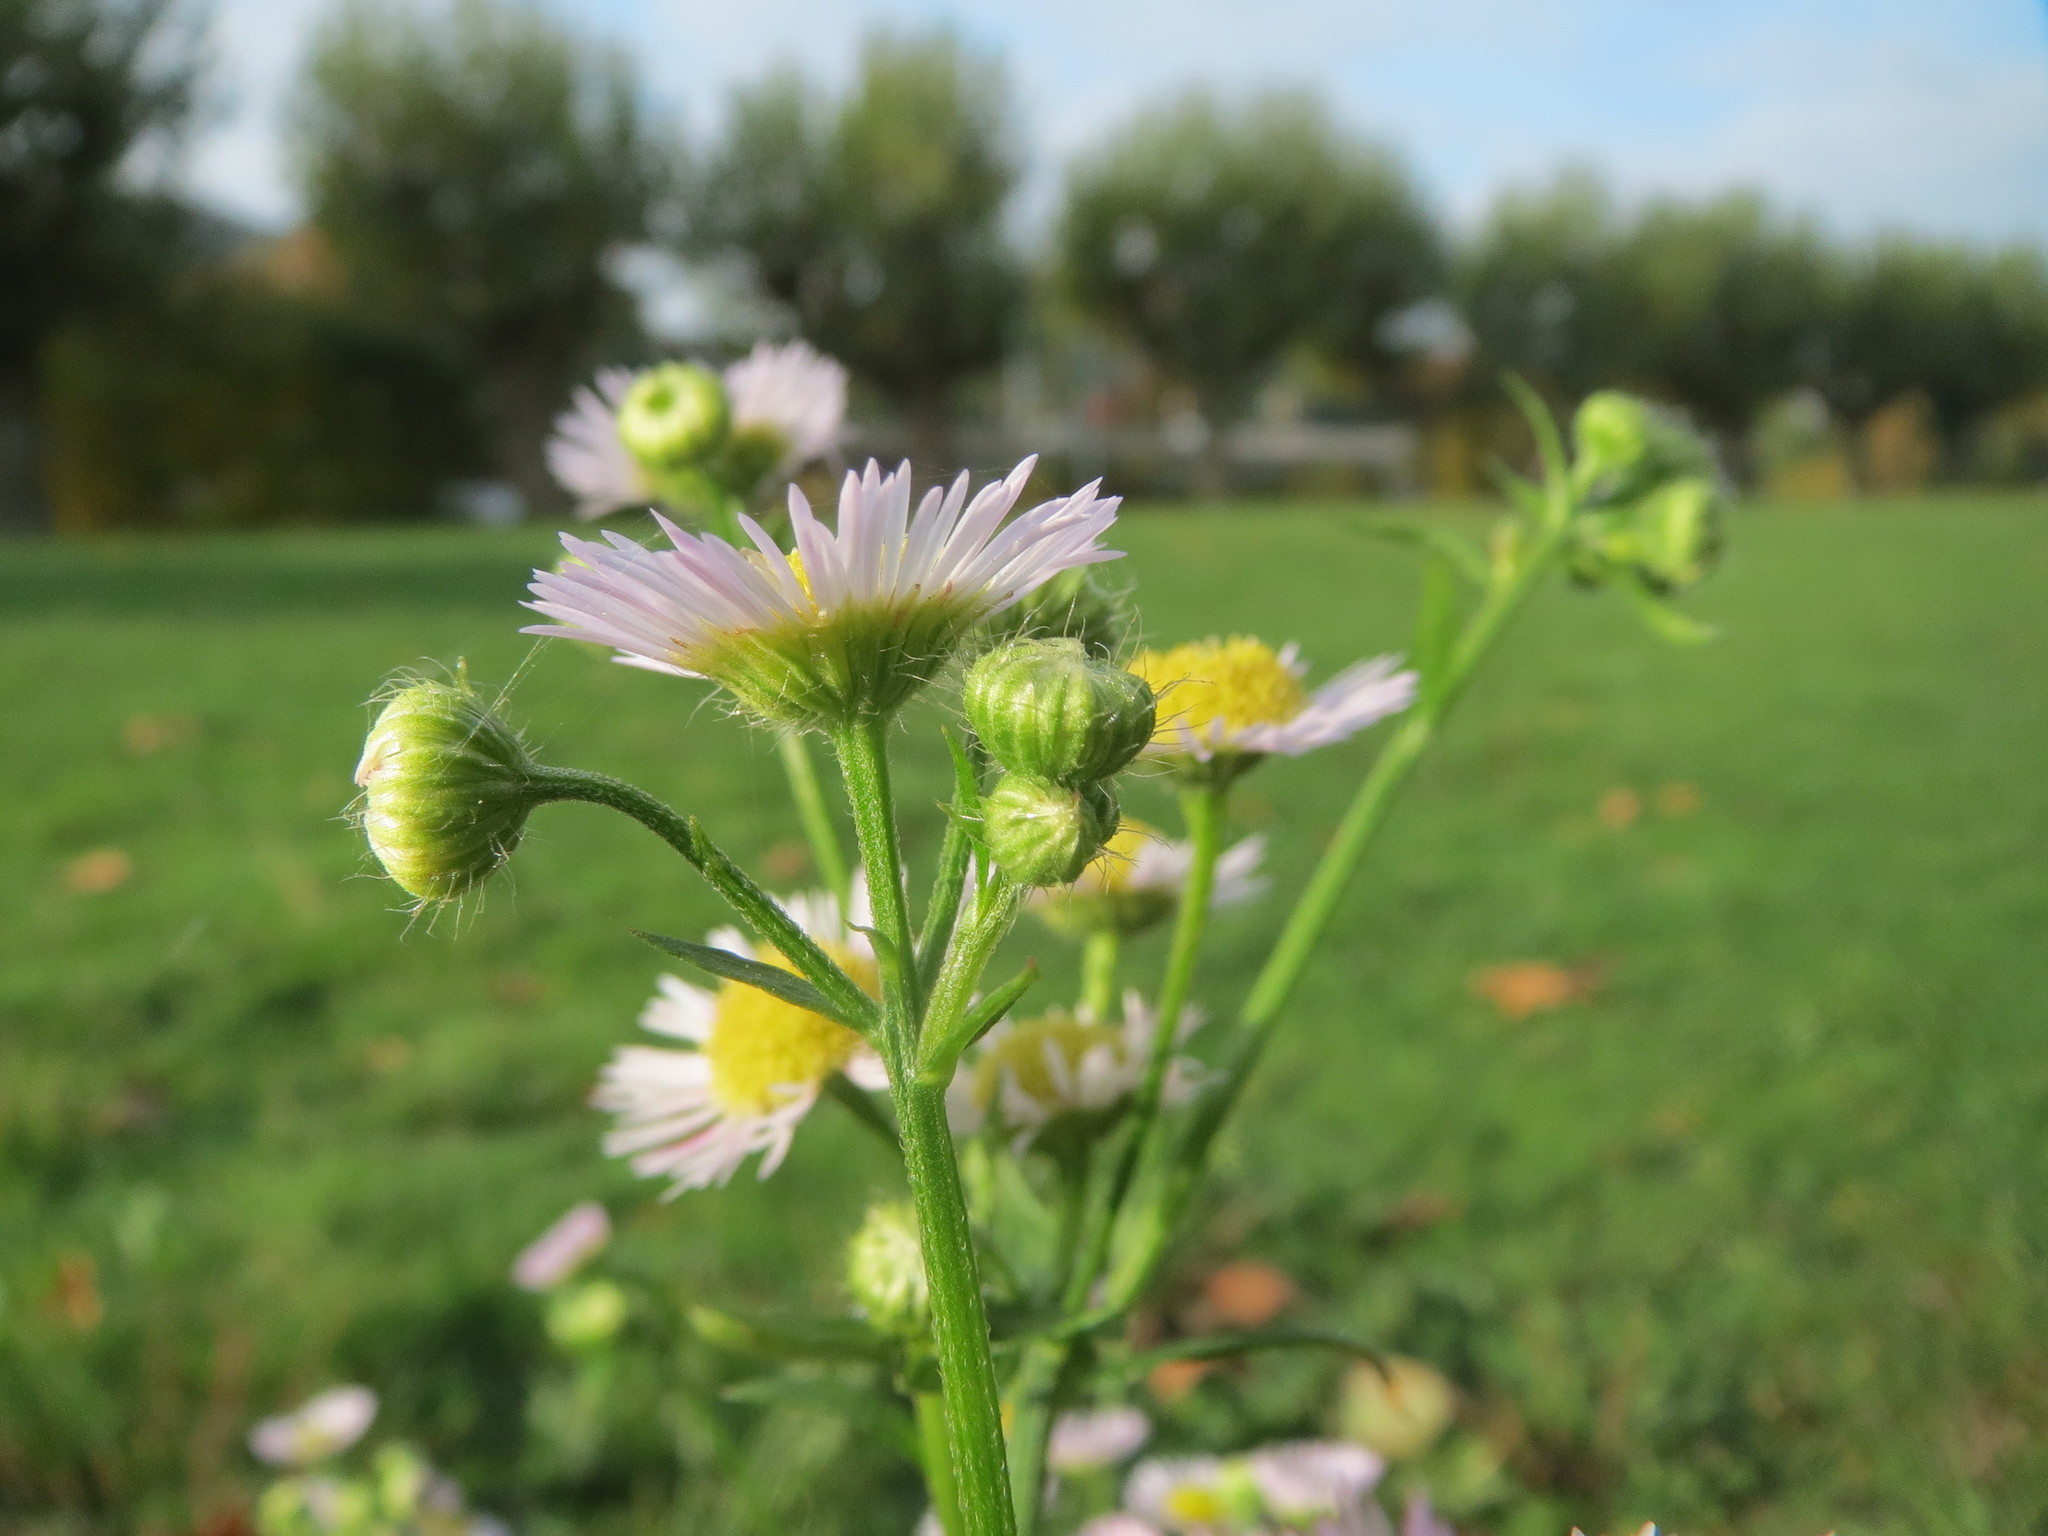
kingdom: Plantae
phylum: Tracheophyta
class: Magnoliopsida
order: Asterales
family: Asteraceae
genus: Erigeron
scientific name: Erigeron annuus
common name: Tall fleabane
